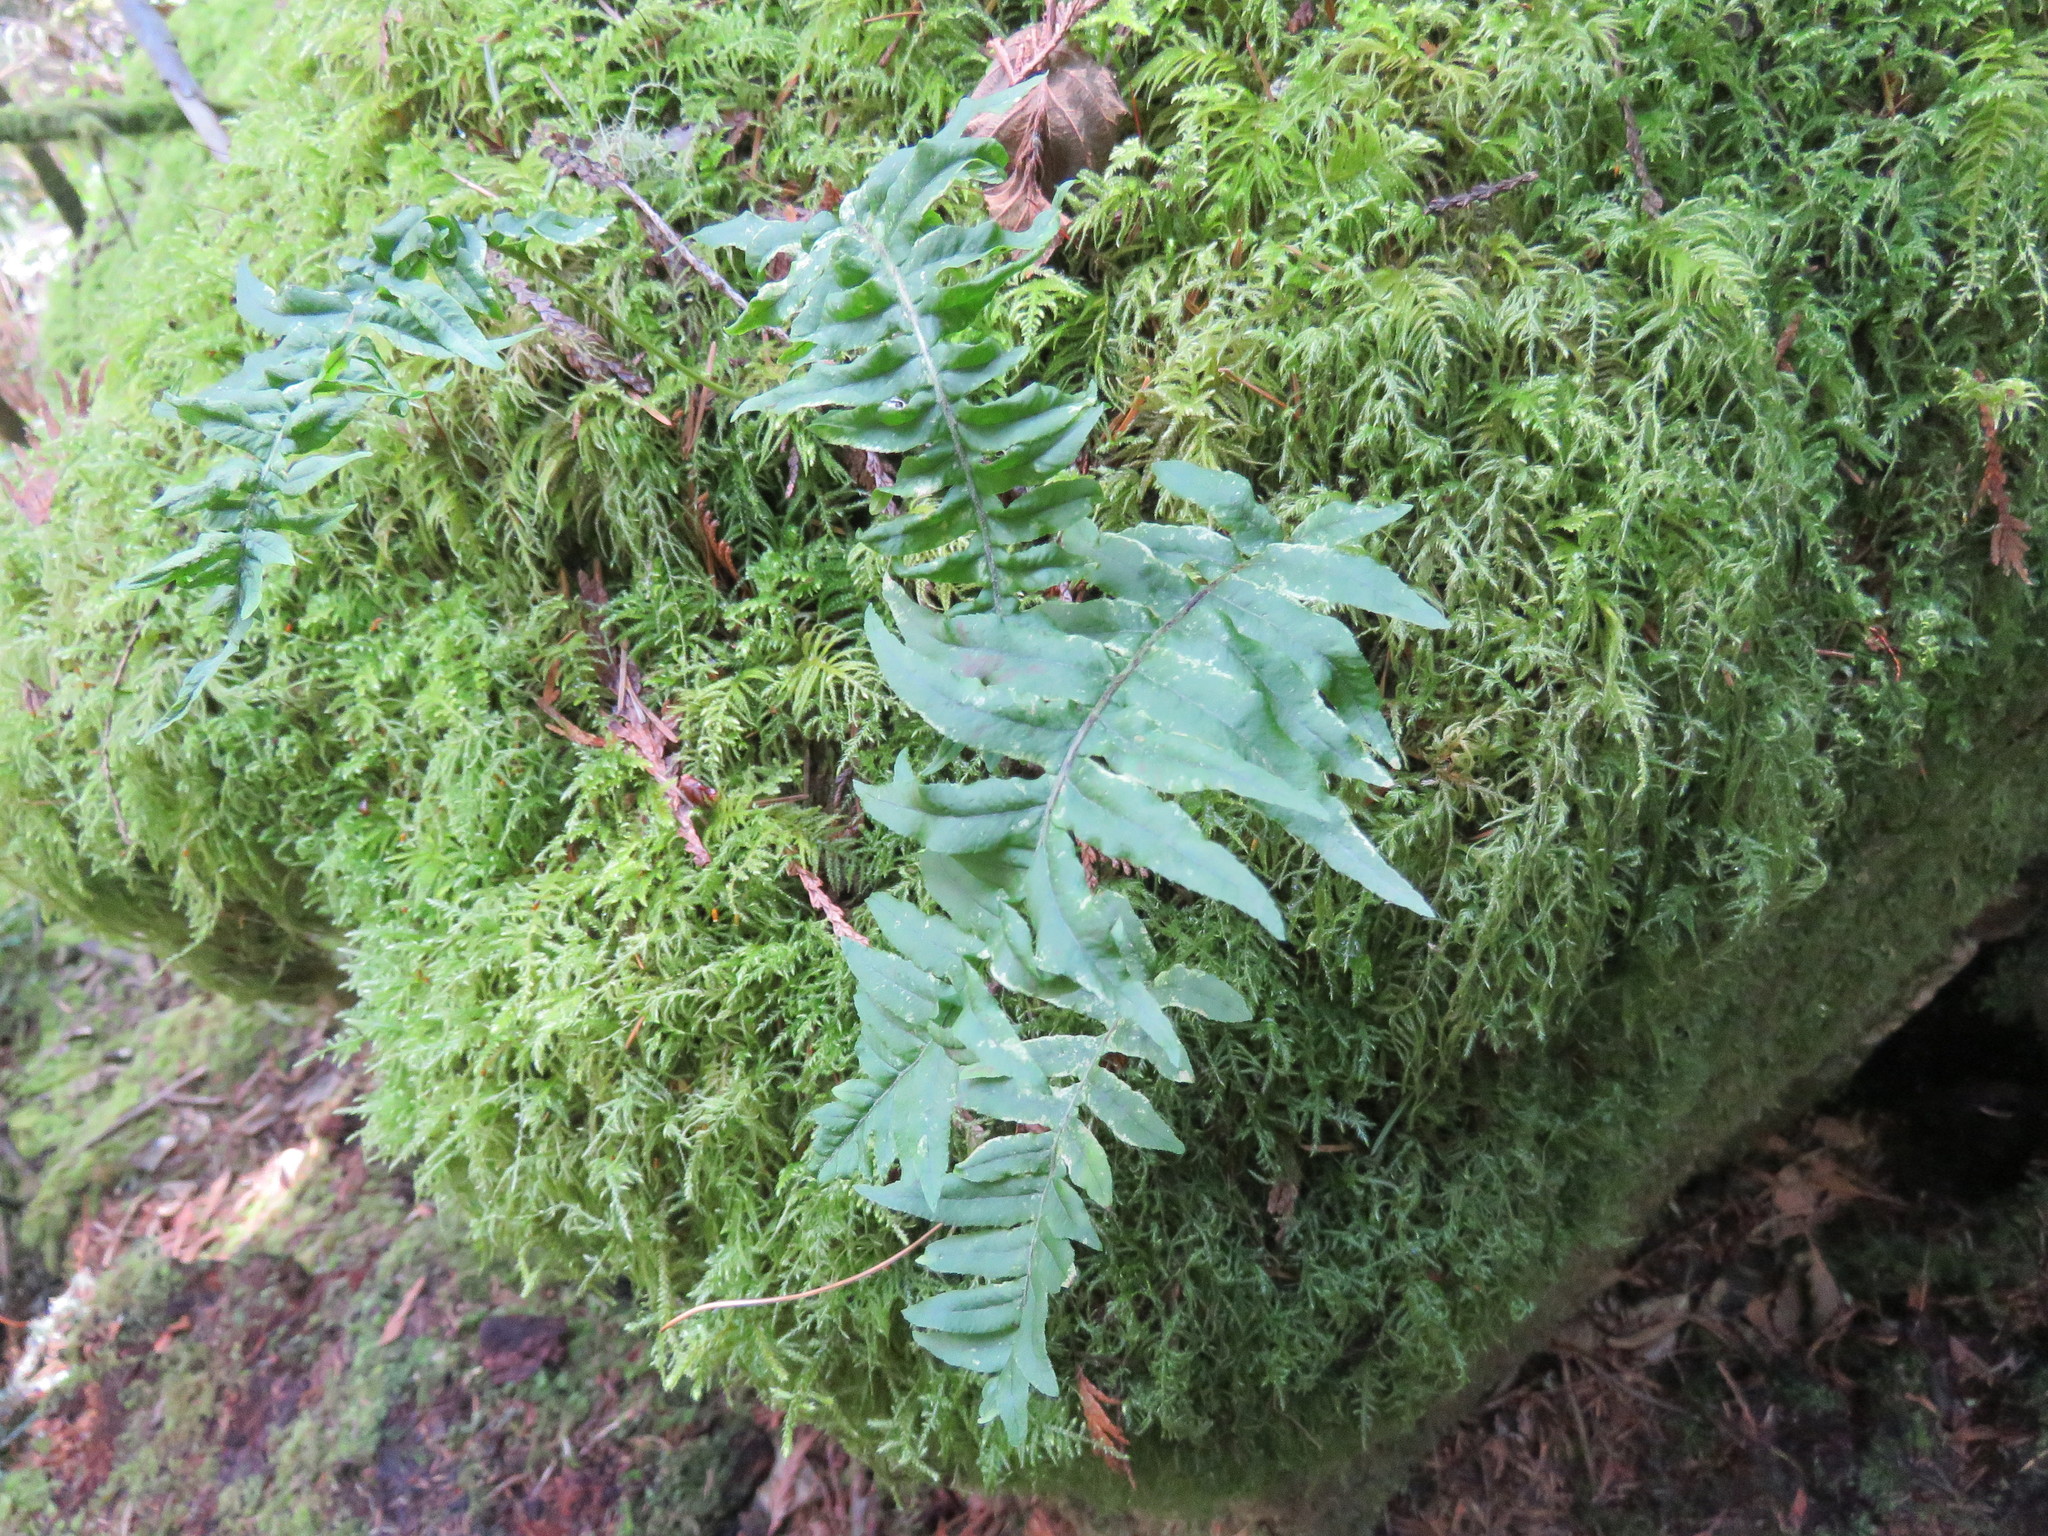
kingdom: Plantae
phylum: Tracheophyta
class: Polypodiopsida
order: Polypodiales
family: Polypodiaceae
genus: Polypodium
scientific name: Polypodium glycyrrhiza
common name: Licorice fern
